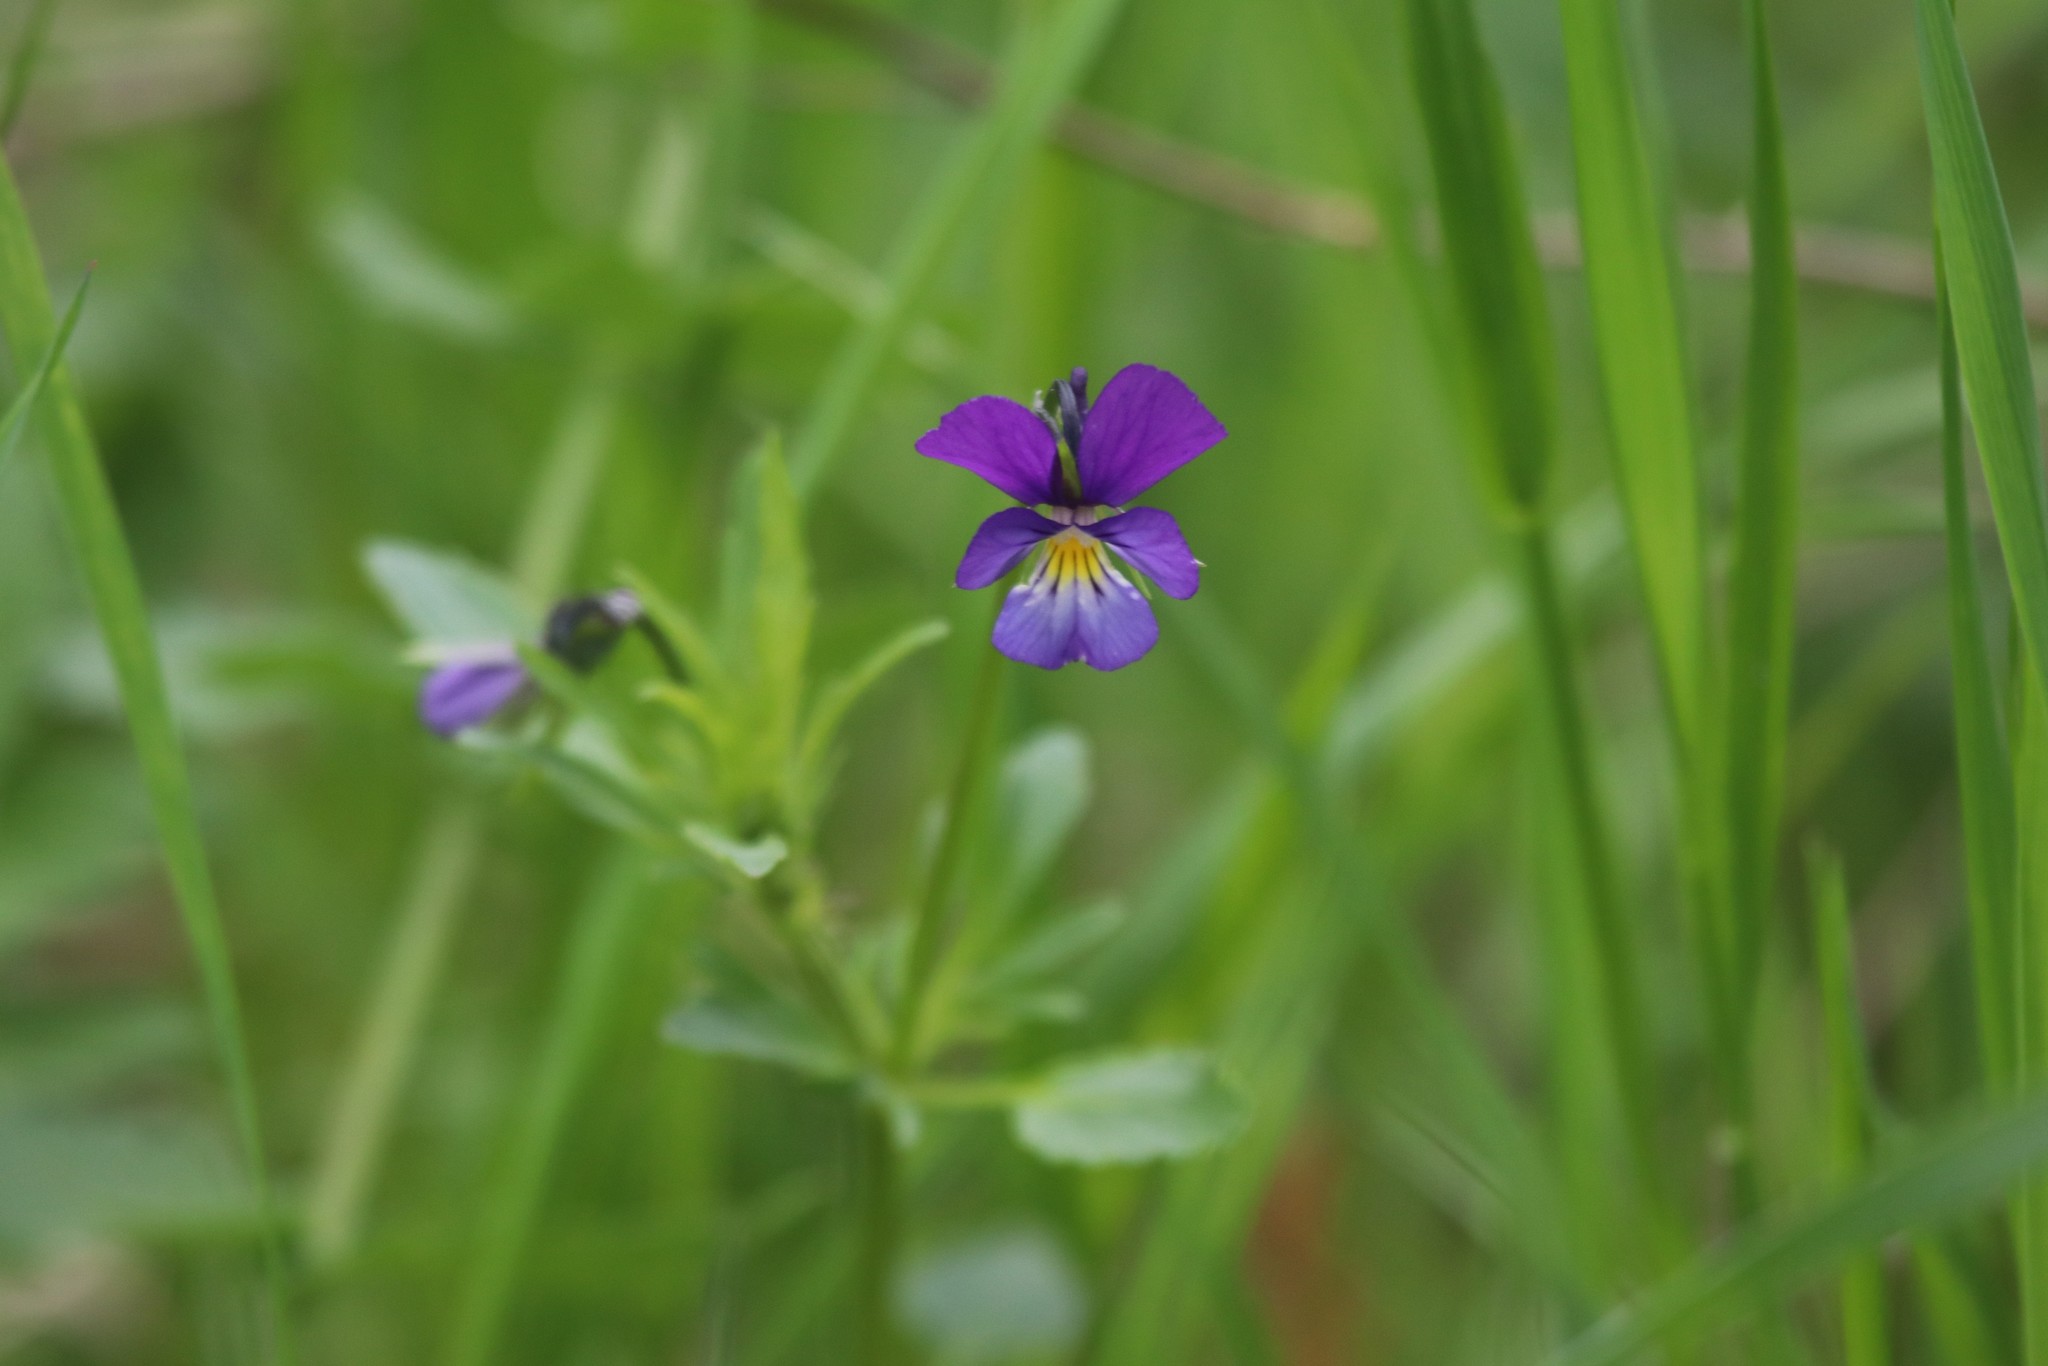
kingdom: Plantae
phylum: Tracheophyta
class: Magnoliopsida
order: Malpighiales
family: Violaceae
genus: Viola
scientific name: Viola tricolor
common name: Pansy
